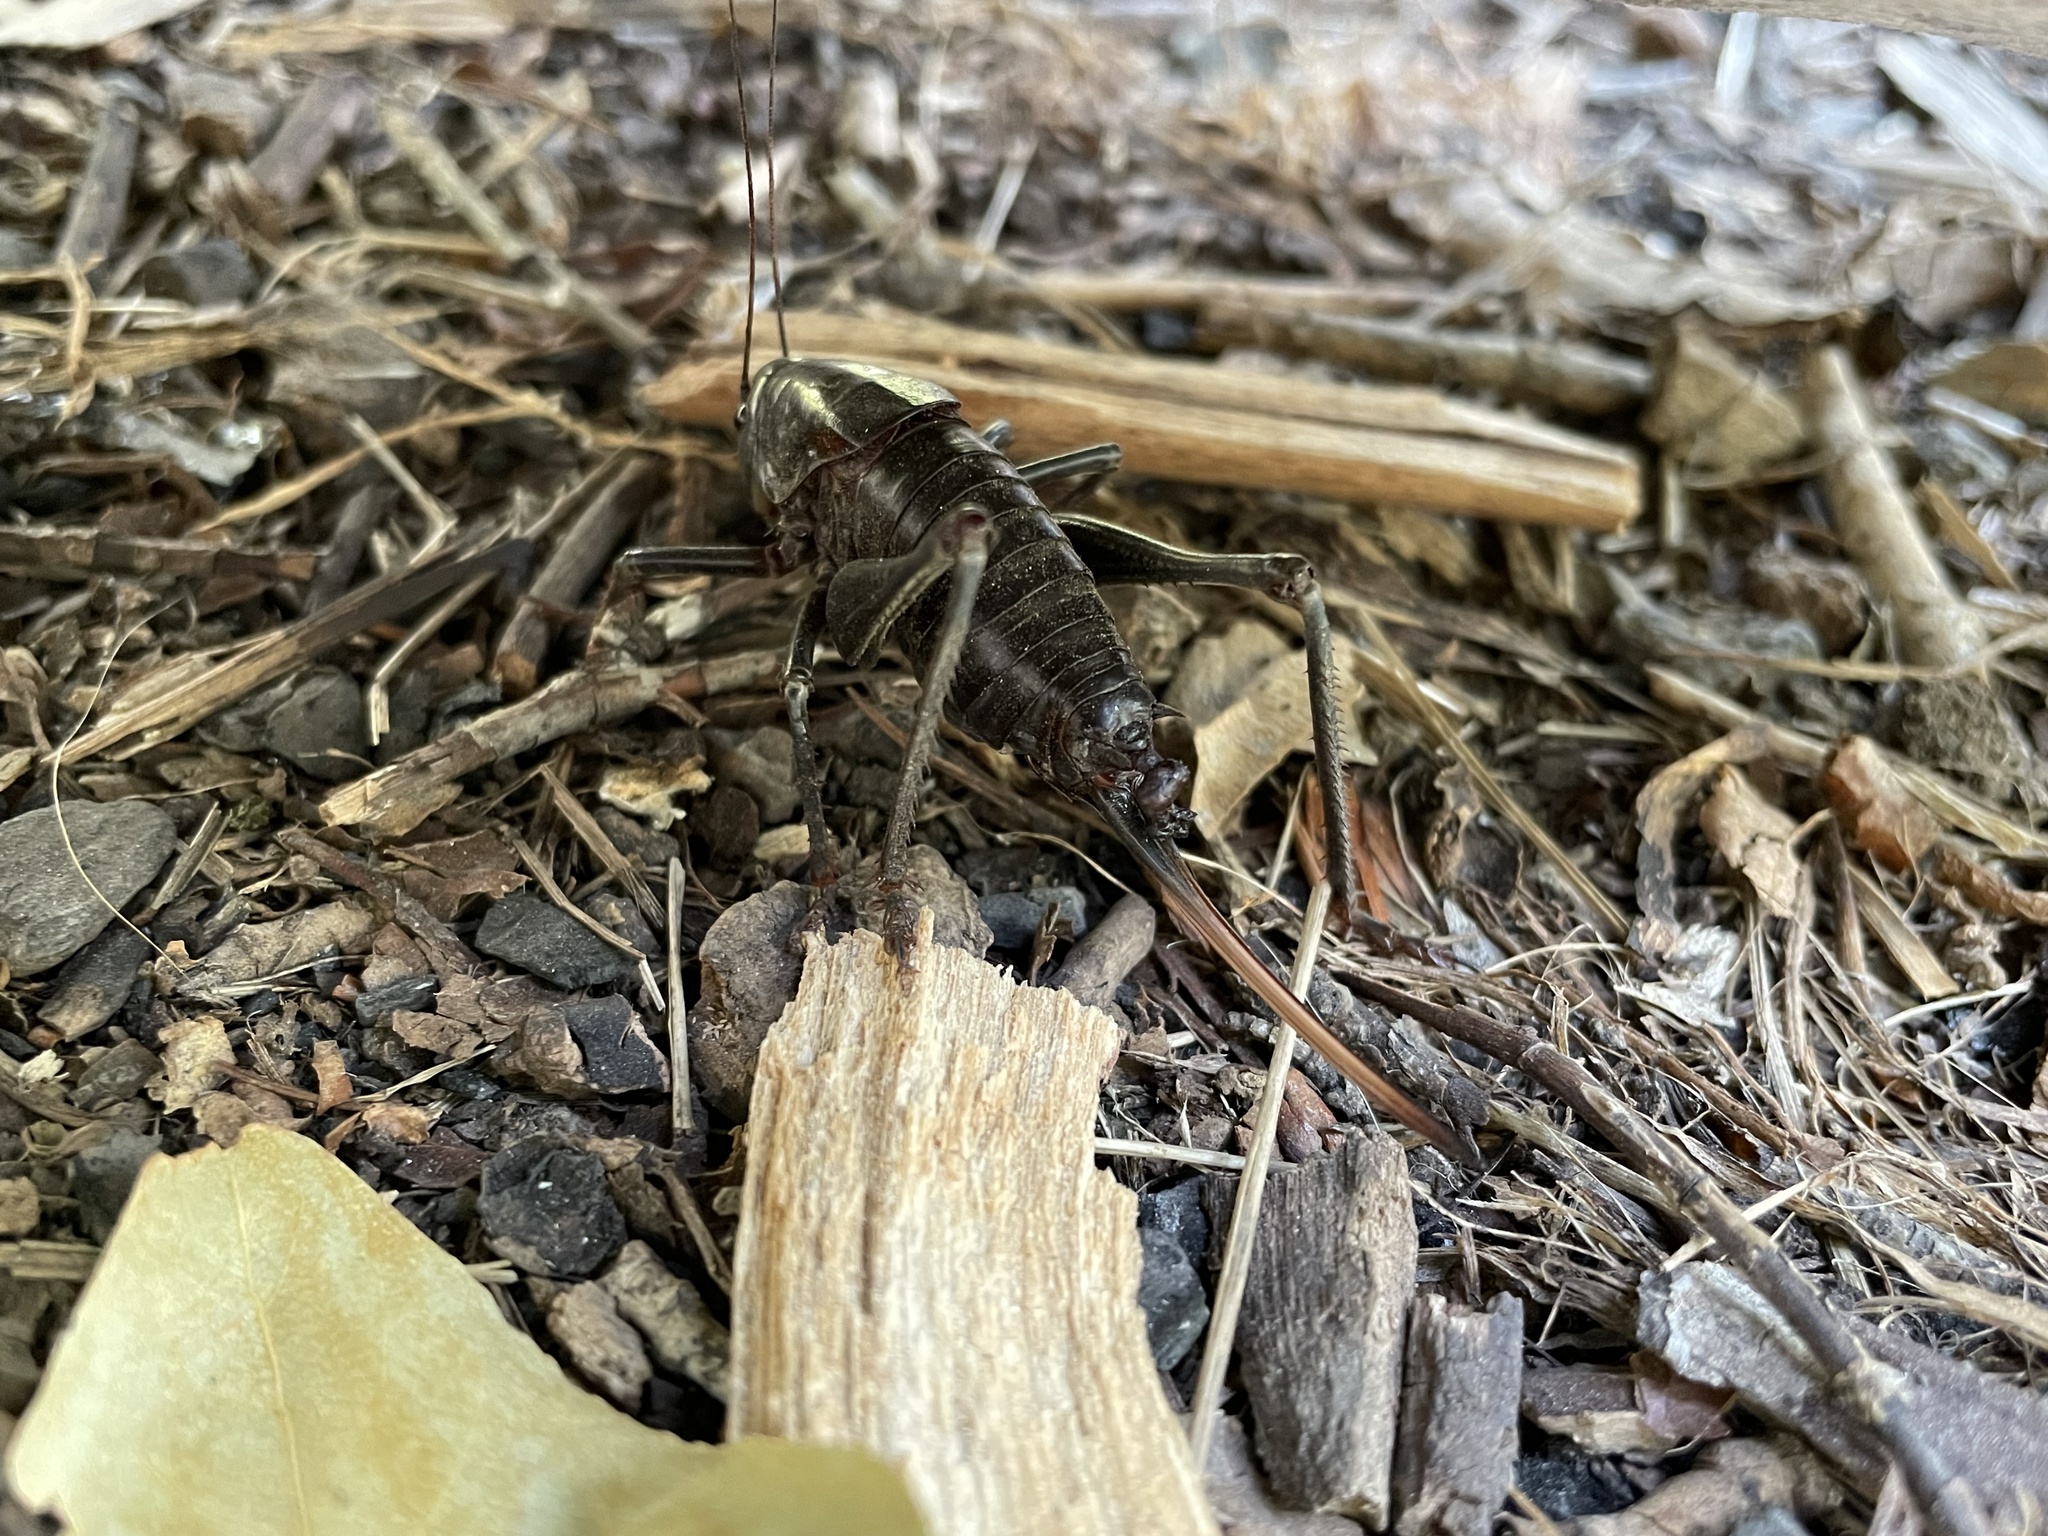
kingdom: Animalia
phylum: Arthropoda
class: Insecta
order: Orthoptera
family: Tettigoniidae
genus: Anabrus
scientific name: Anabrus simplex
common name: Mormon cricket
